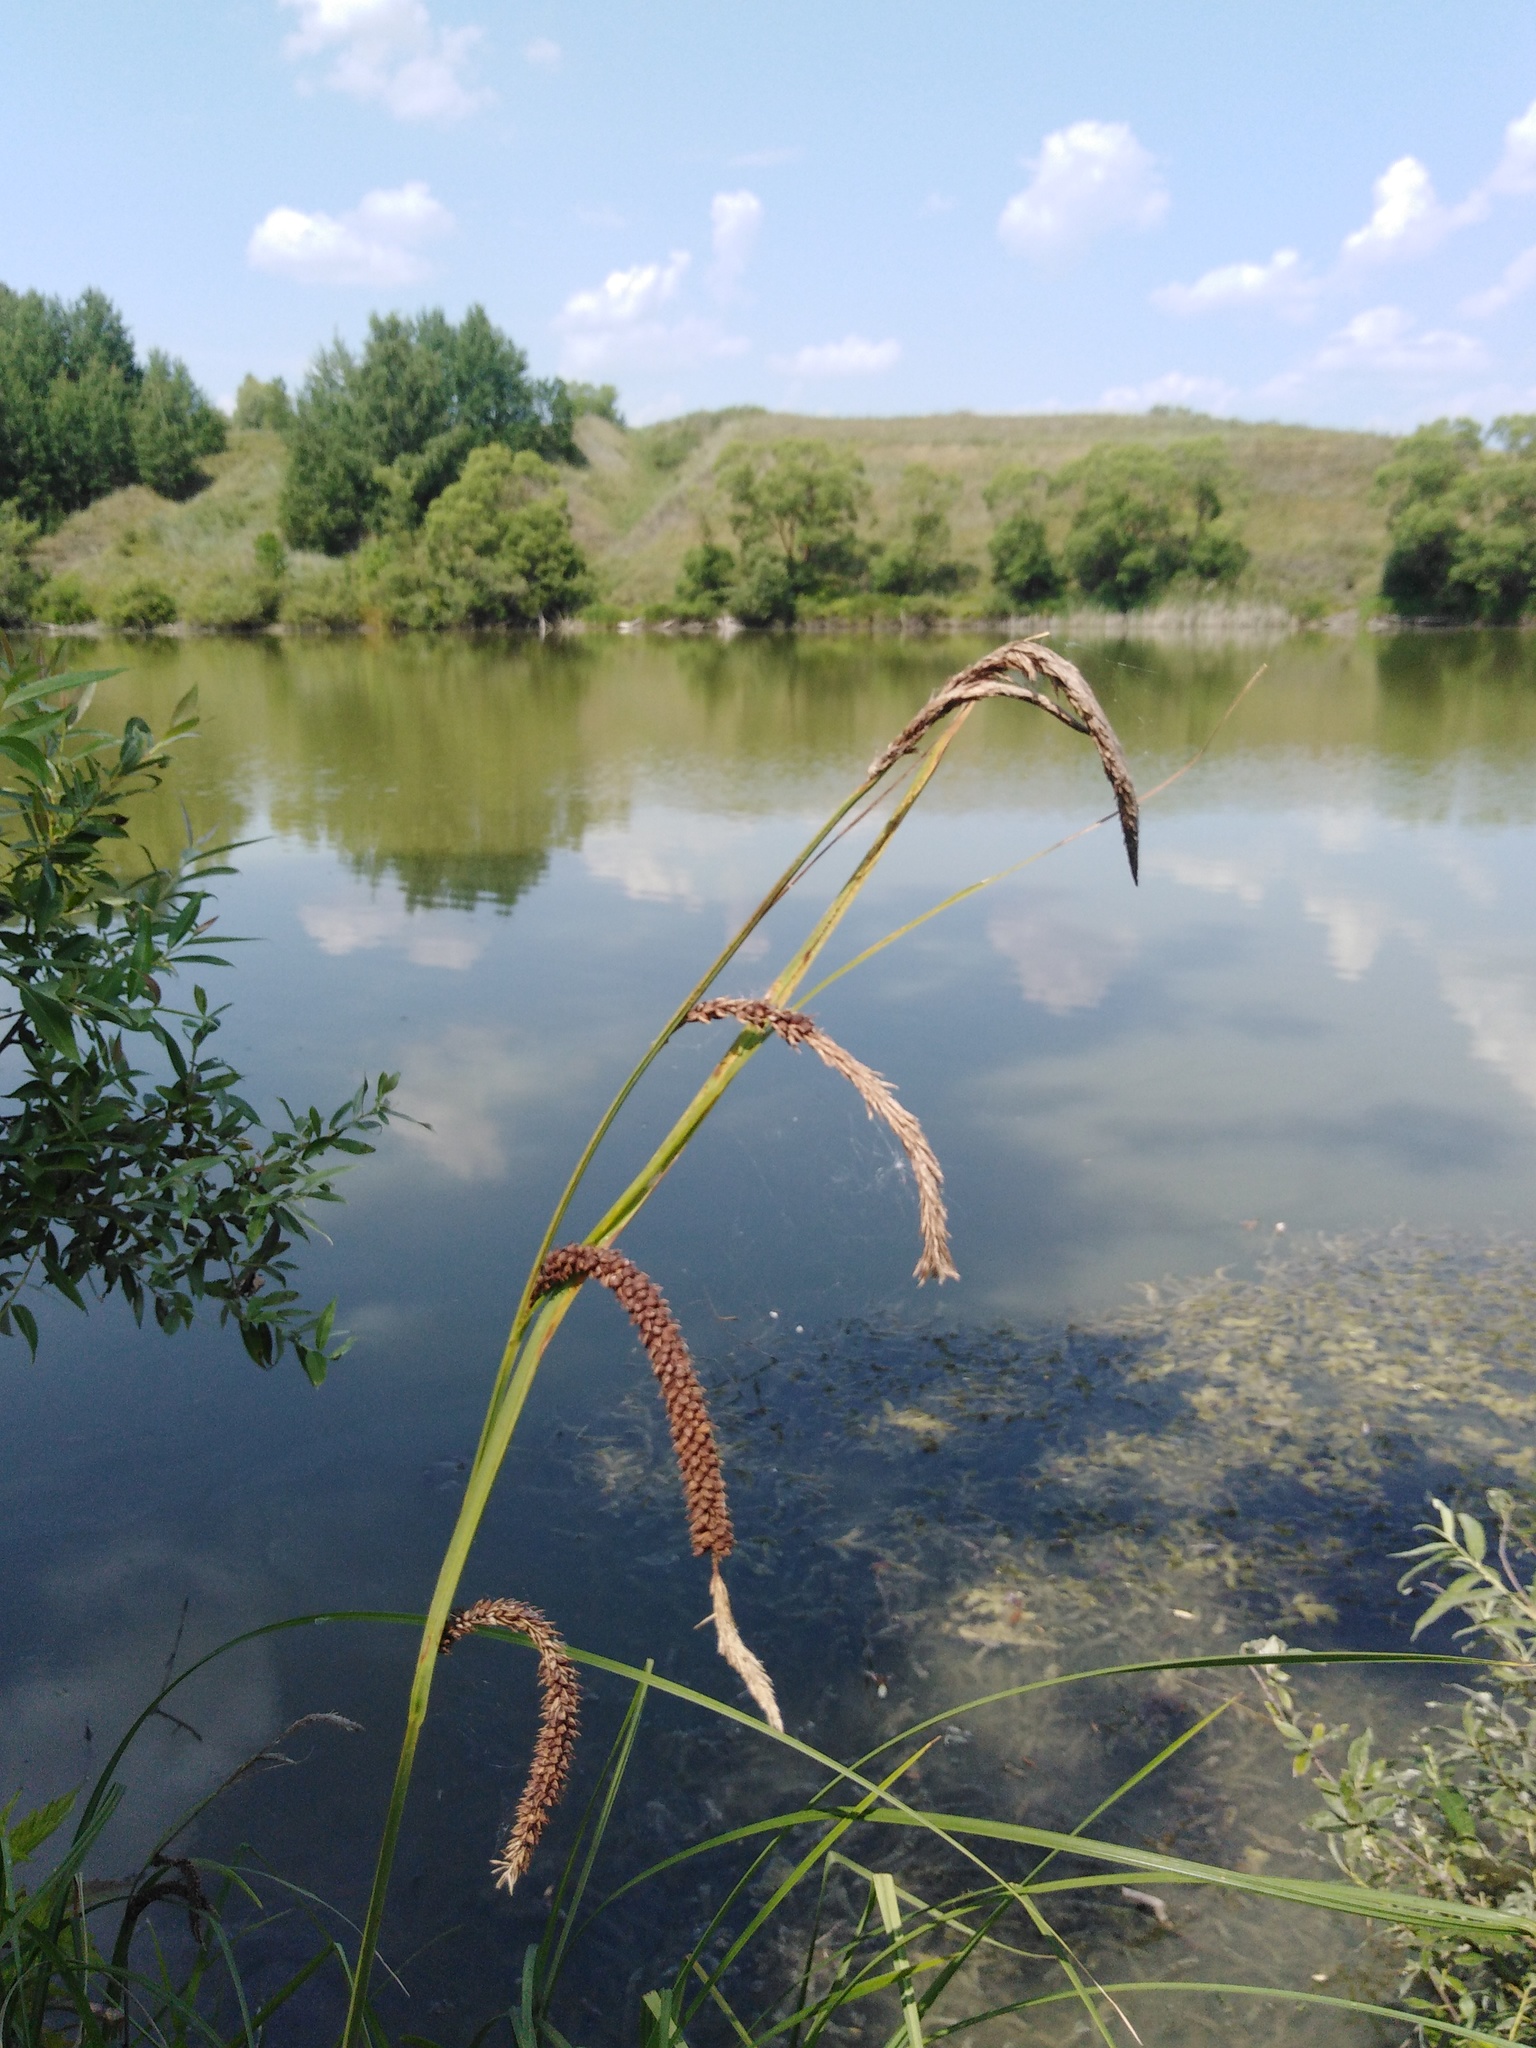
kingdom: Plantae
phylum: Tracheophyta
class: Liliopsida
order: Poales
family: Cyperaceae
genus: Carex
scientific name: Carex acuta
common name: Slender tufted-sedge
